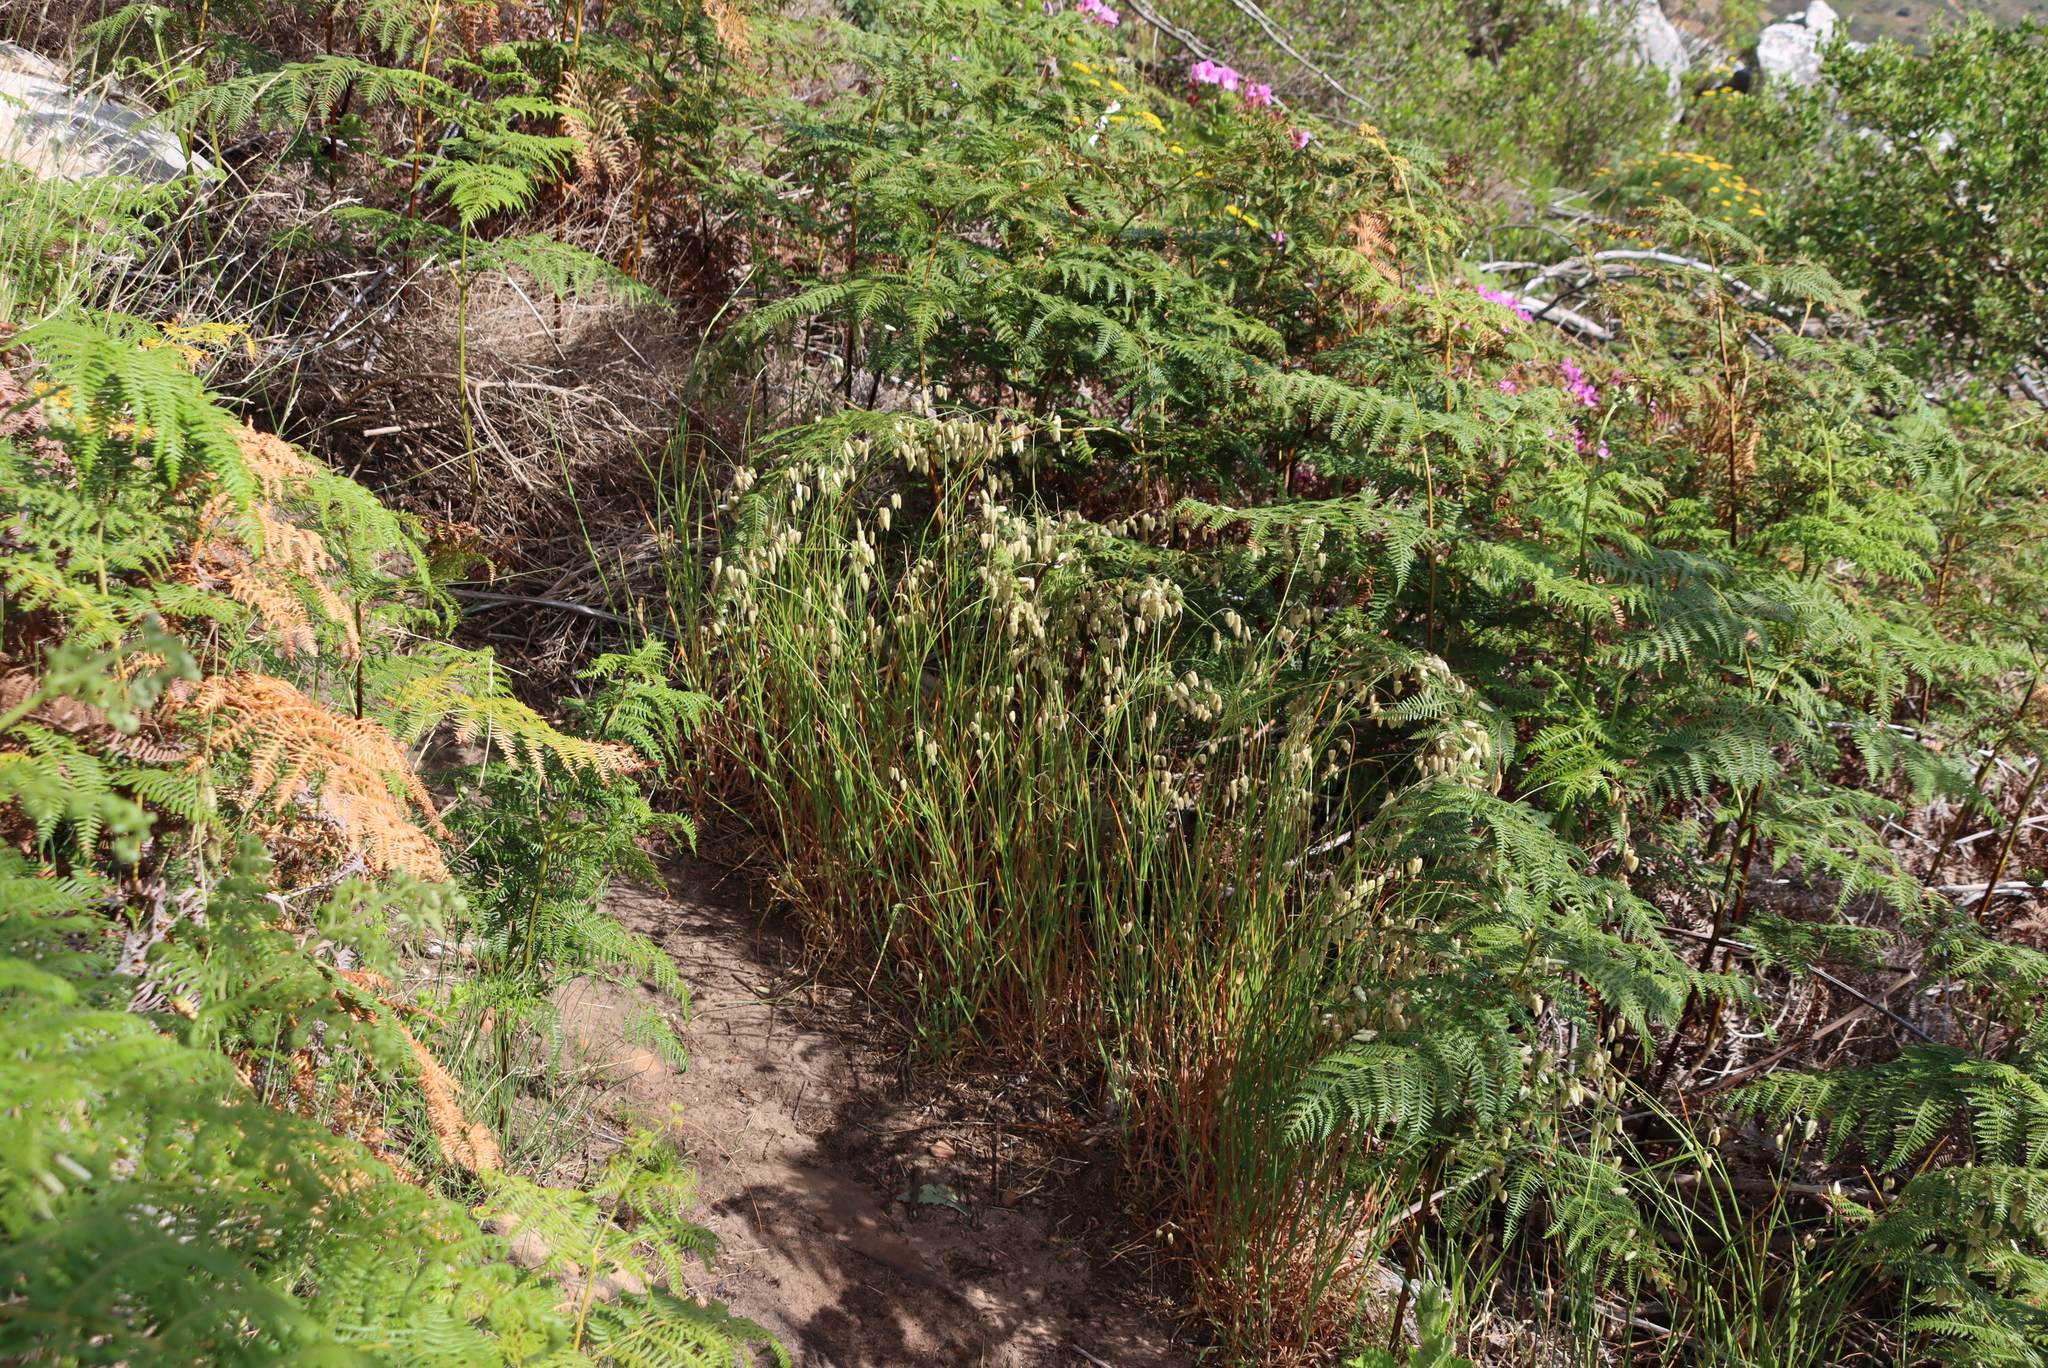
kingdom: Plantae
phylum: Tracheophyta
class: Liliopsida
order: Poales
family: Poaceae
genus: Briza
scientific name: Briza maxima
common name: Big quakinggrass
